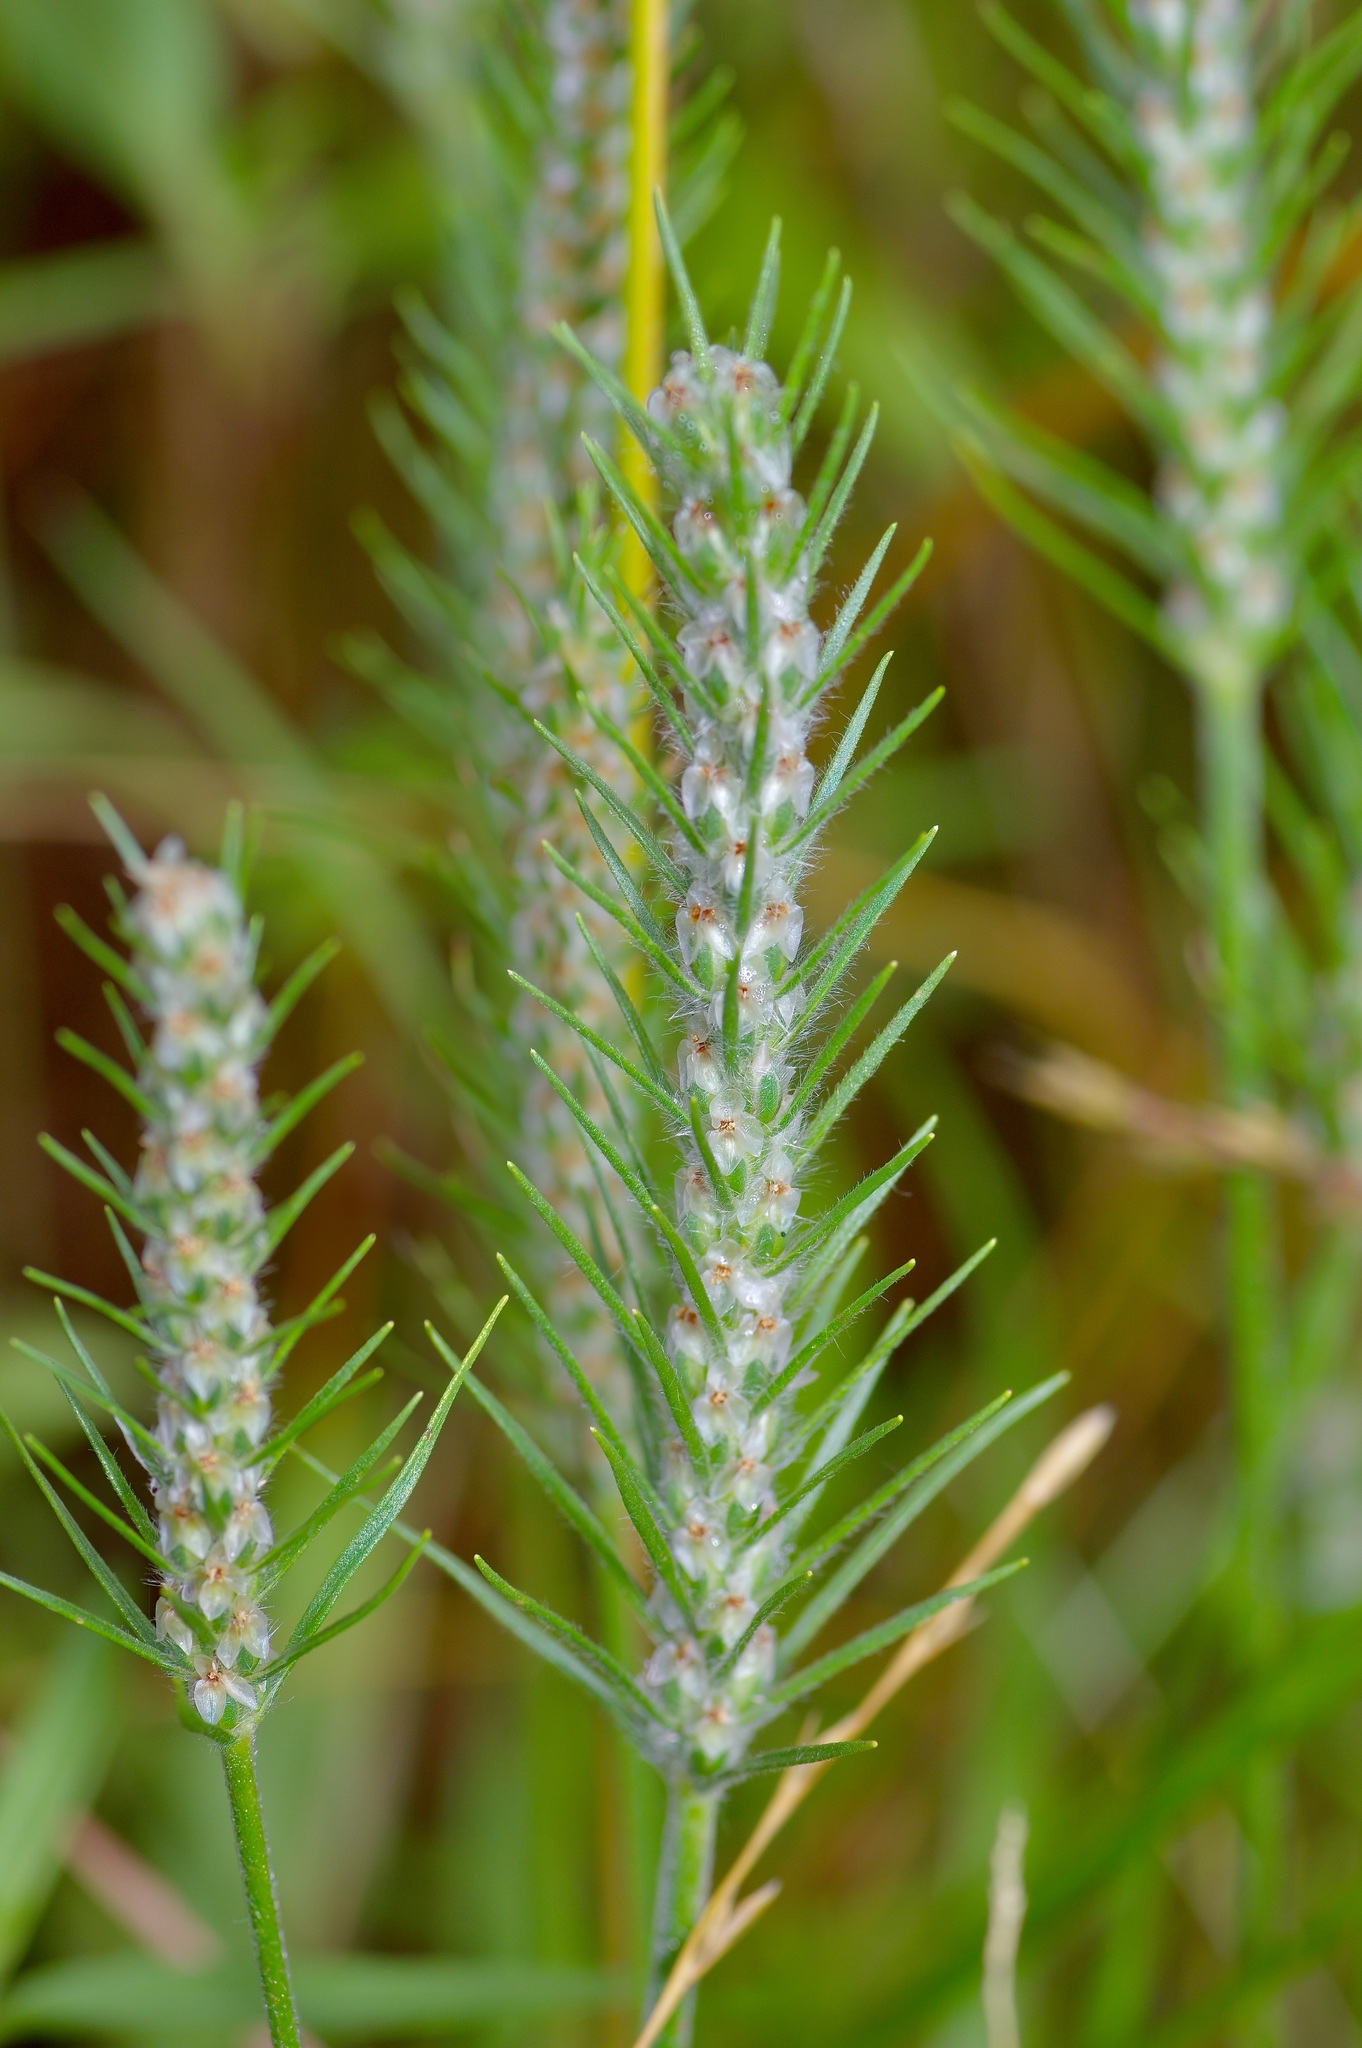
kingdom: Plantae
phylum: Tracheophyta
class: Magnoliopsida
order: Lamiales
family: Plantaginaceae
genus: Plantago
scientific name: Plantago aristata
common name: Bracted plantain
